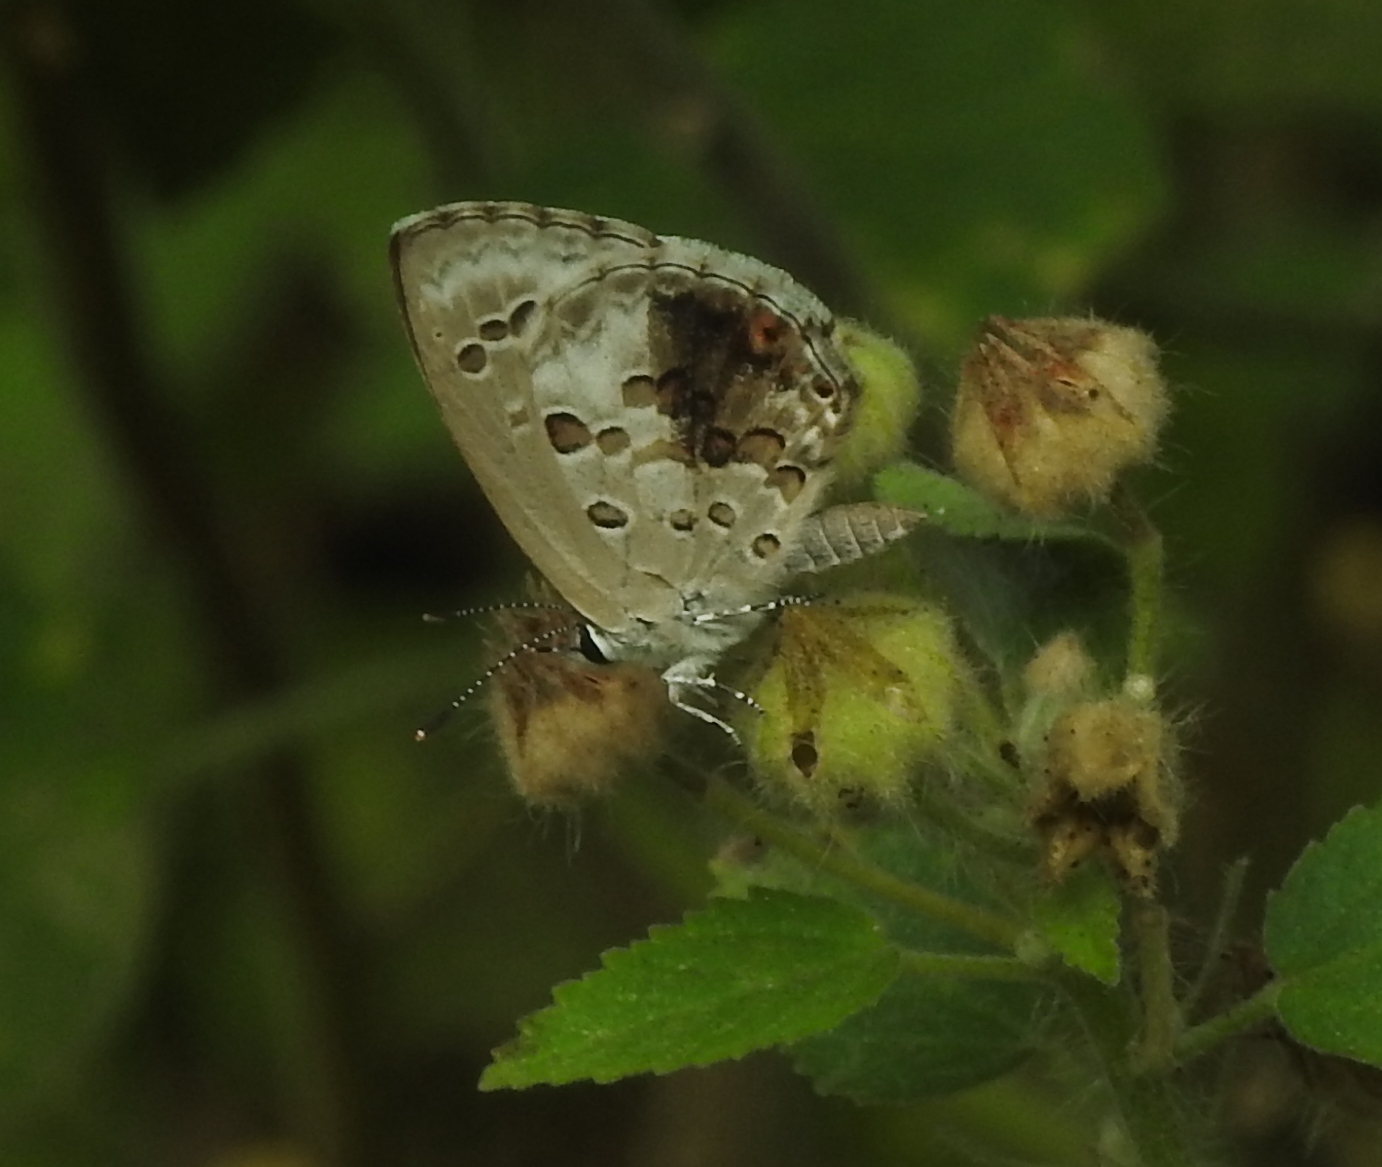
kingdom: Animalia
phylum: Arthropoda
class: Insecta
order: Lepidoptera
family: Lycaenidae
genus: Chilades
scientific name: Chilades laius
